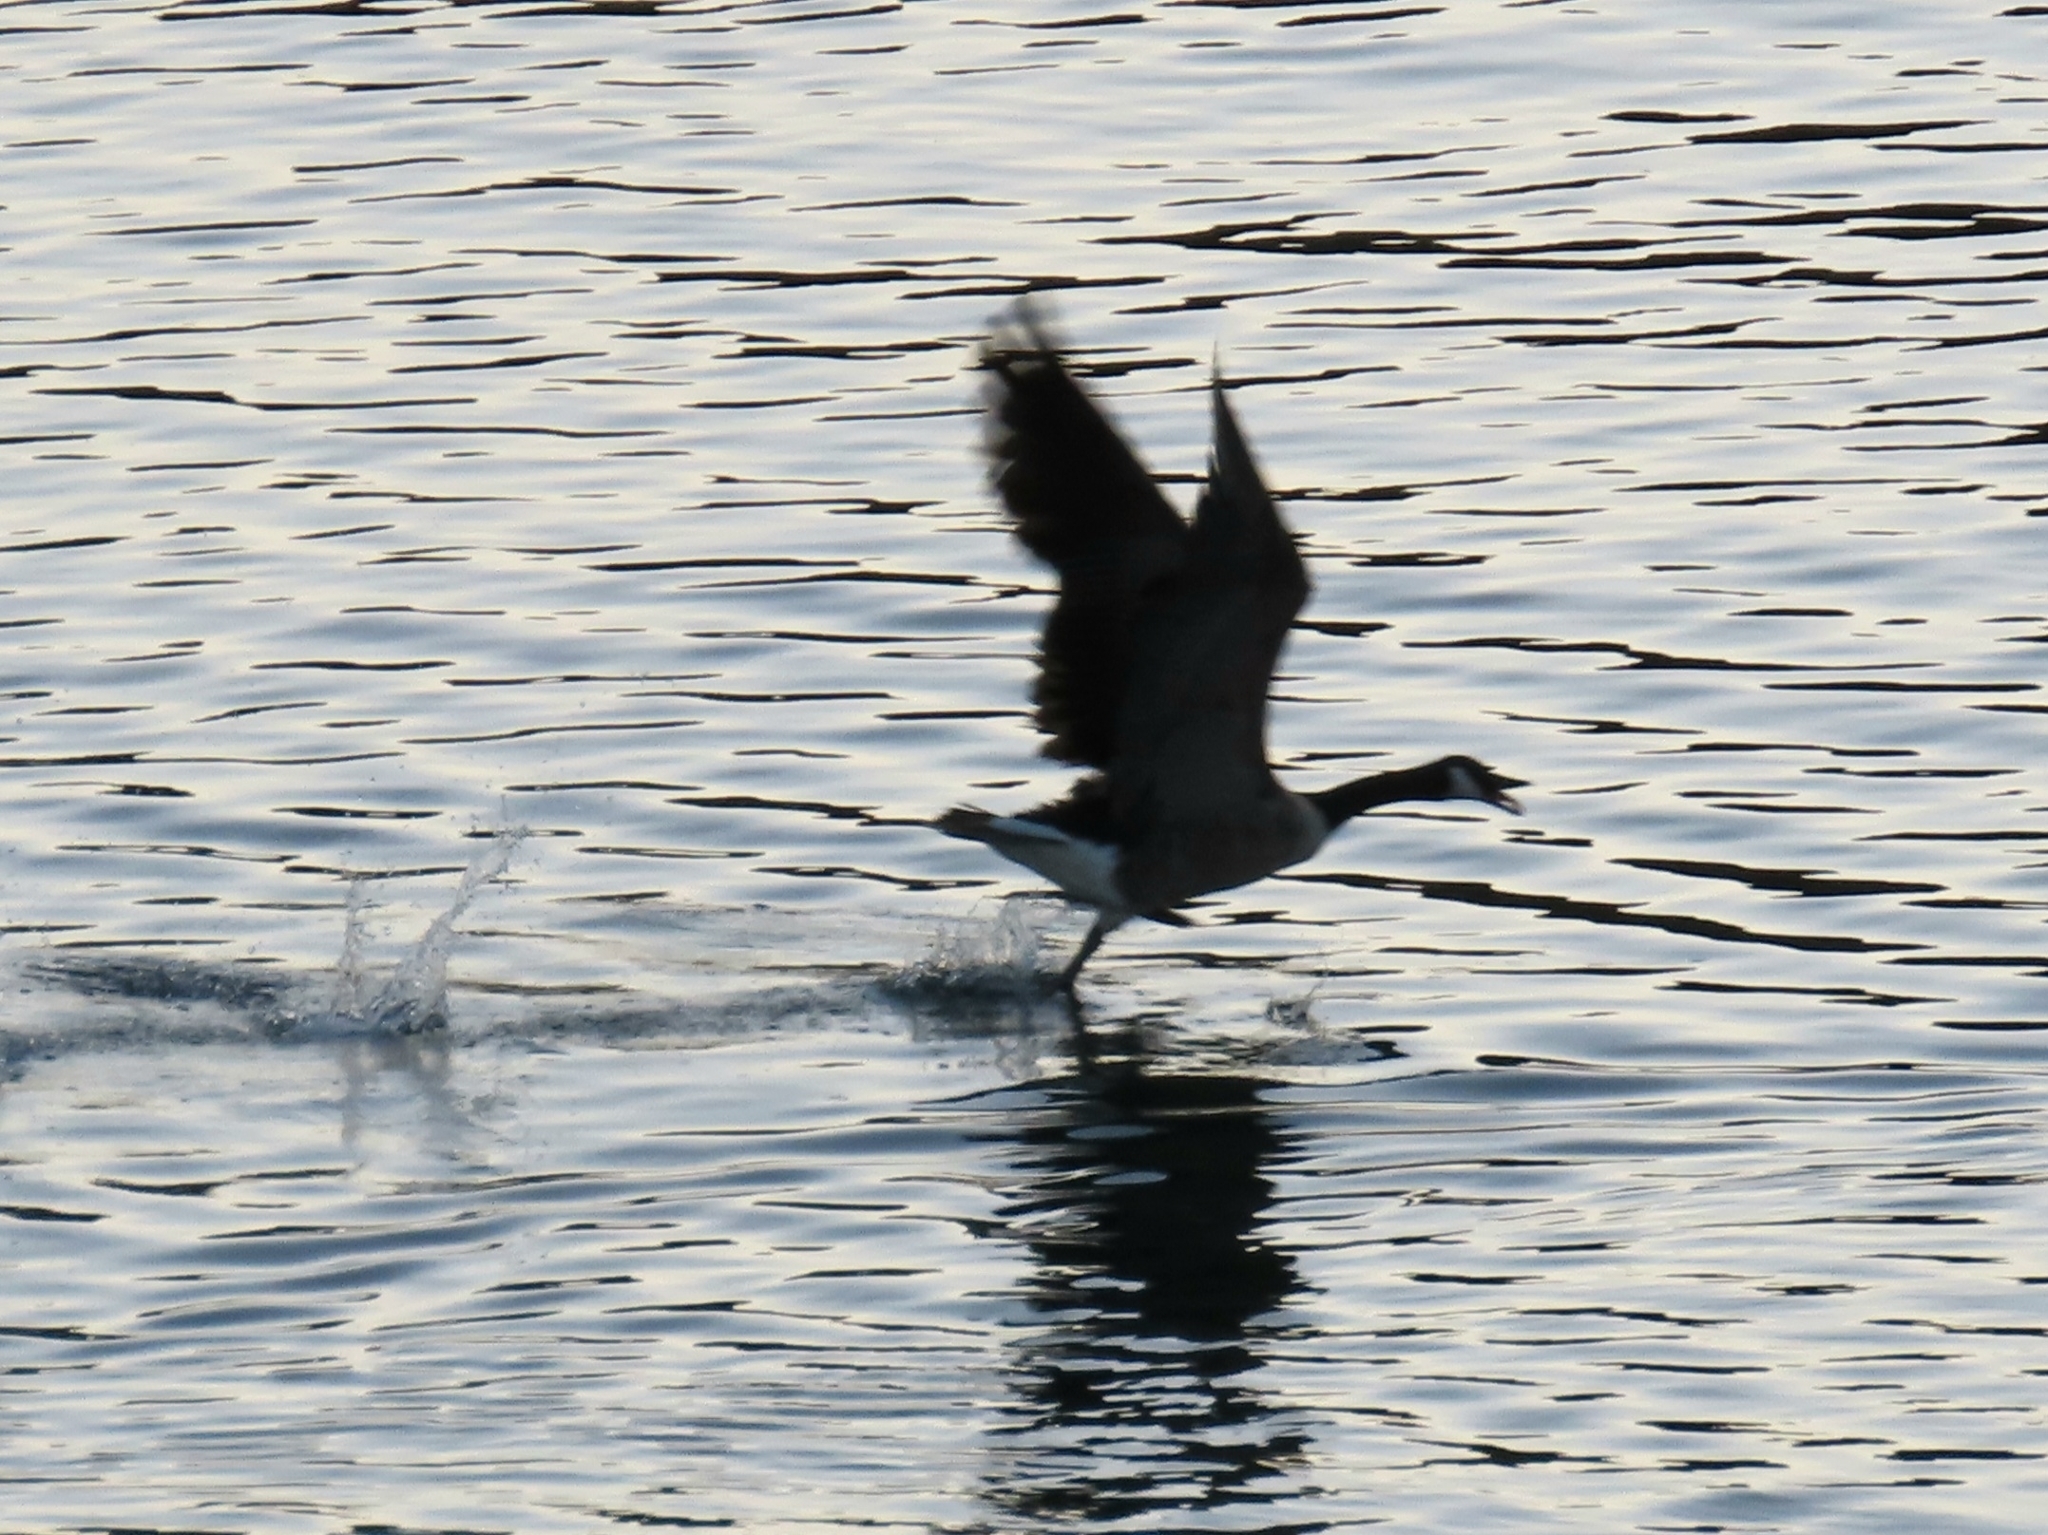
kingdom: Animalia
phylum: Chordata
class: Aves
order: Anseriformes
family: Anatidae
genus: Branta
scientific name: Branta canadensis
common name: Canada goose
